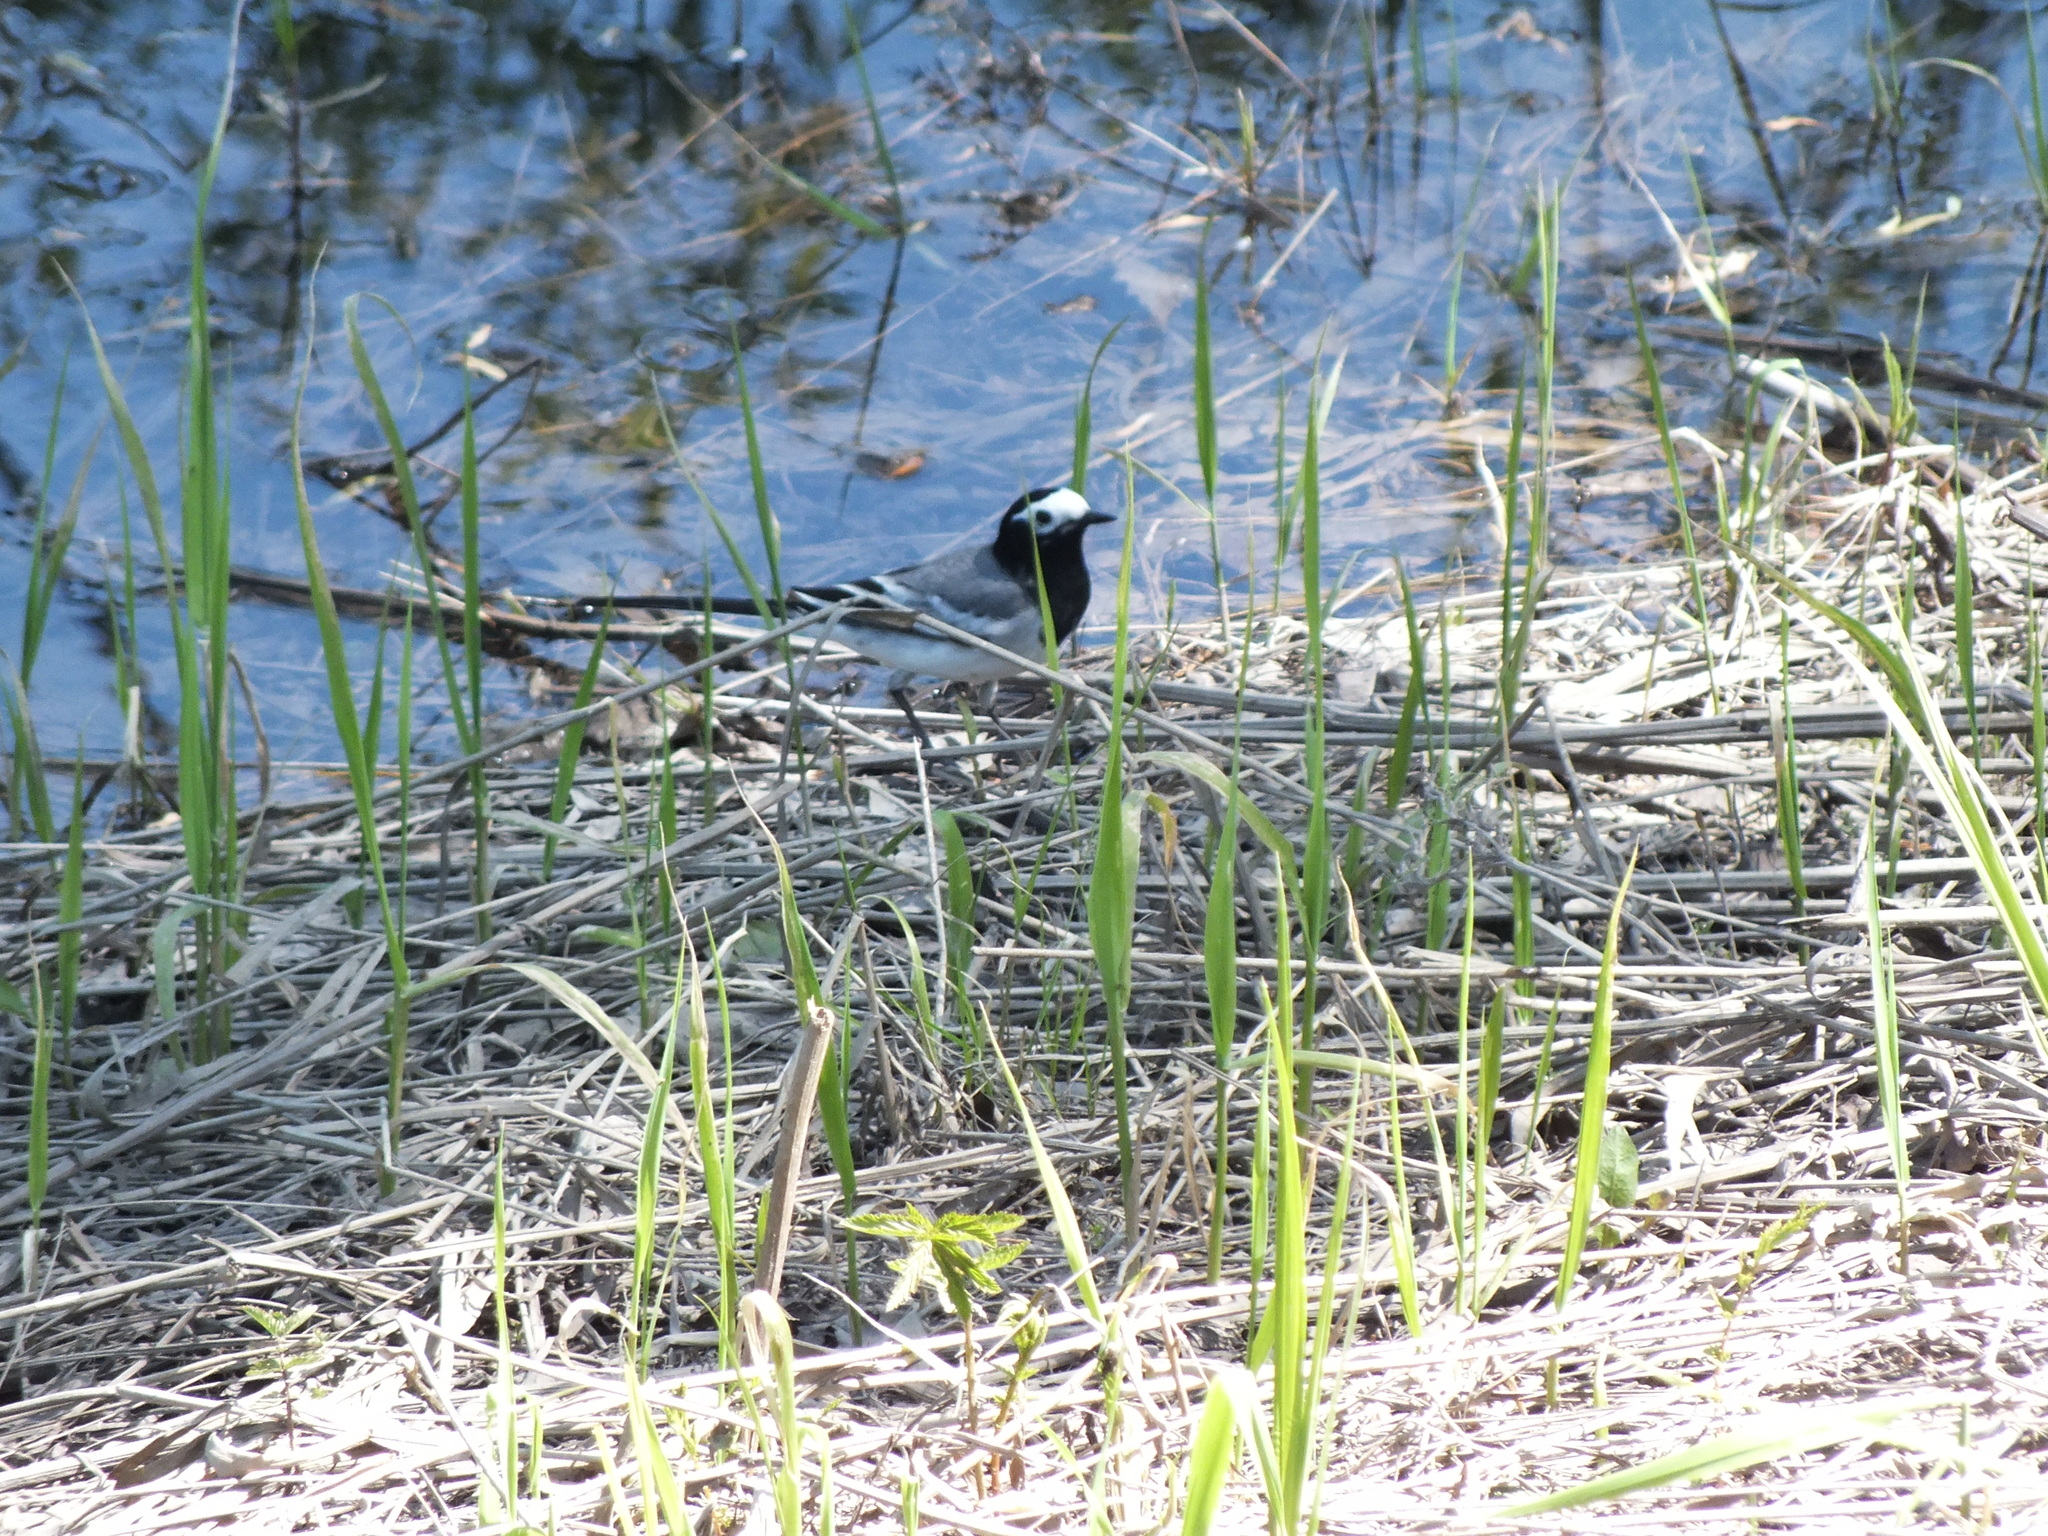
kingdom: Animalia
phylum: Chordata
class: Aves
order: Passeriformes
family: Motacillidae
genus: Motacilla
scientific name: Motacilla alba
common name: White wagtail
